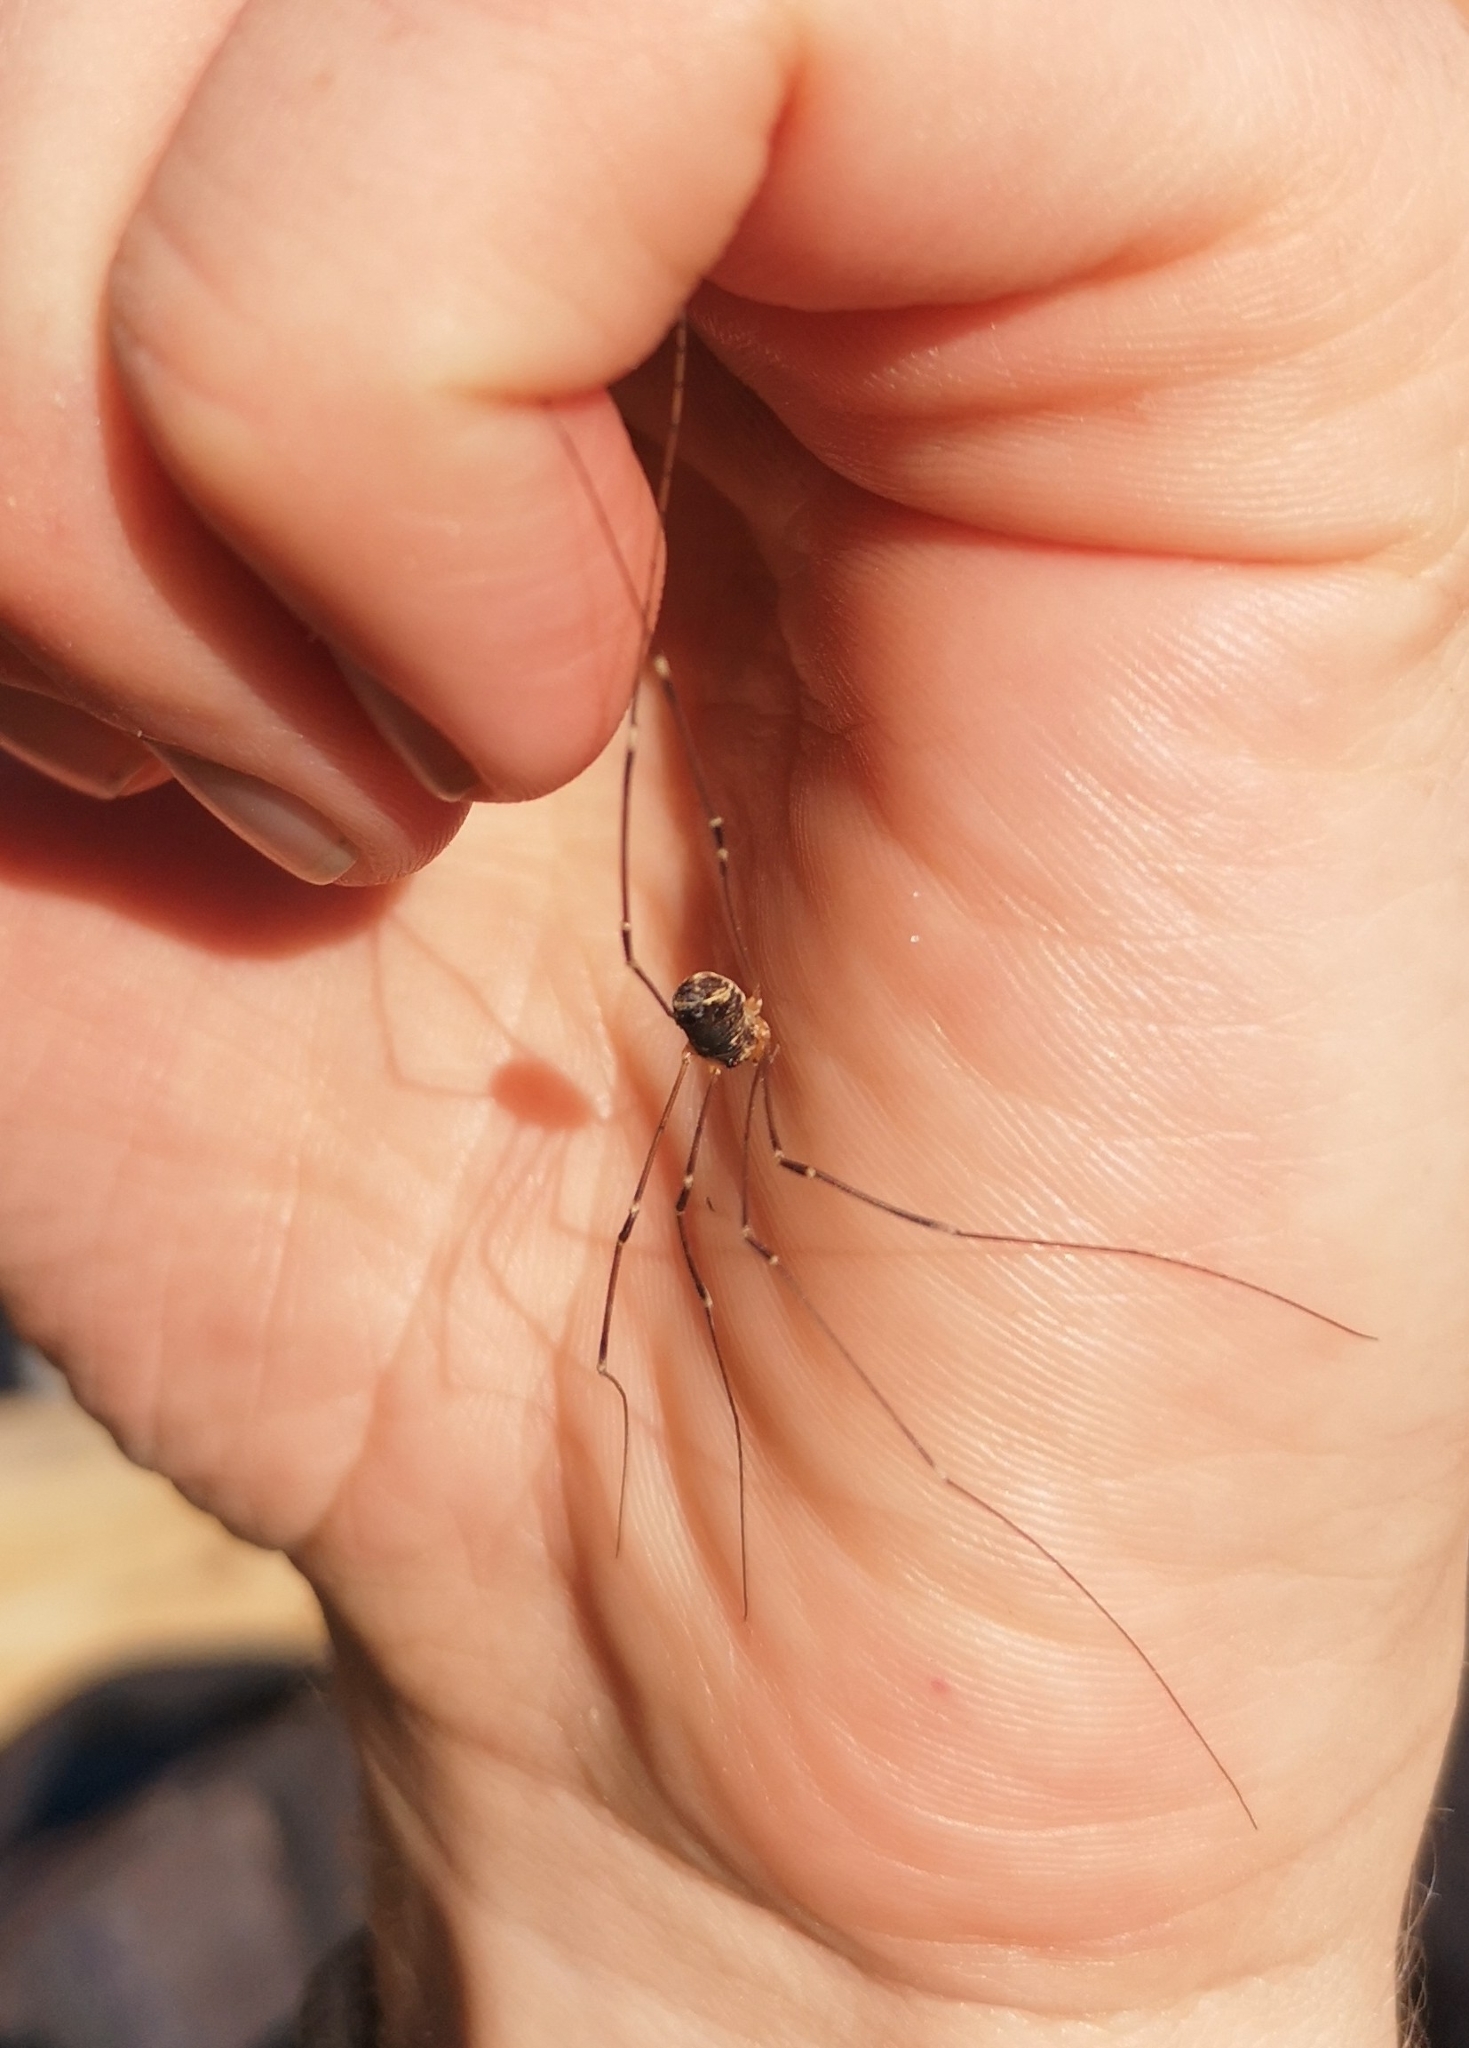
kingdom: Animalia
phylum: Arthropoda
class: Arachnida
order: Opiliones
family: Sclerosomatidae
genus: Leiobunum
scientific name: Leiobunum gracile
